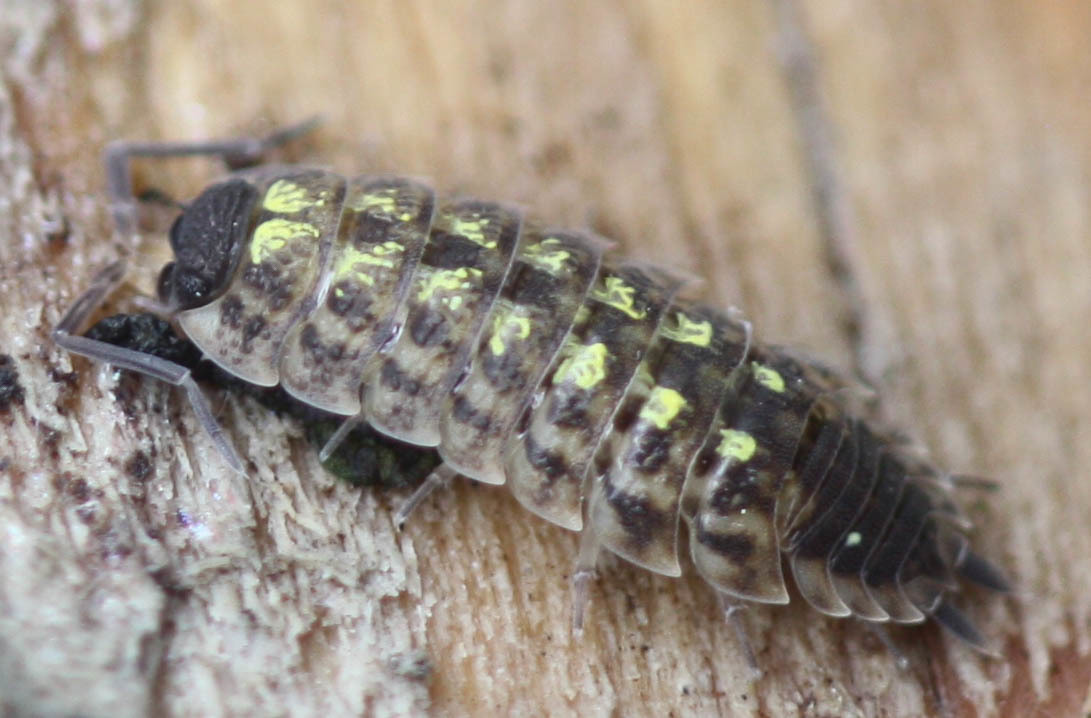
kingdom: Animalia
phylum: Arthropoda
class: Malacostraca
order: Isopoda
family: Porcellionidae
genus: Porcellio
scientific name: Porcellio spinicornis
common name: Painted woodlouse
